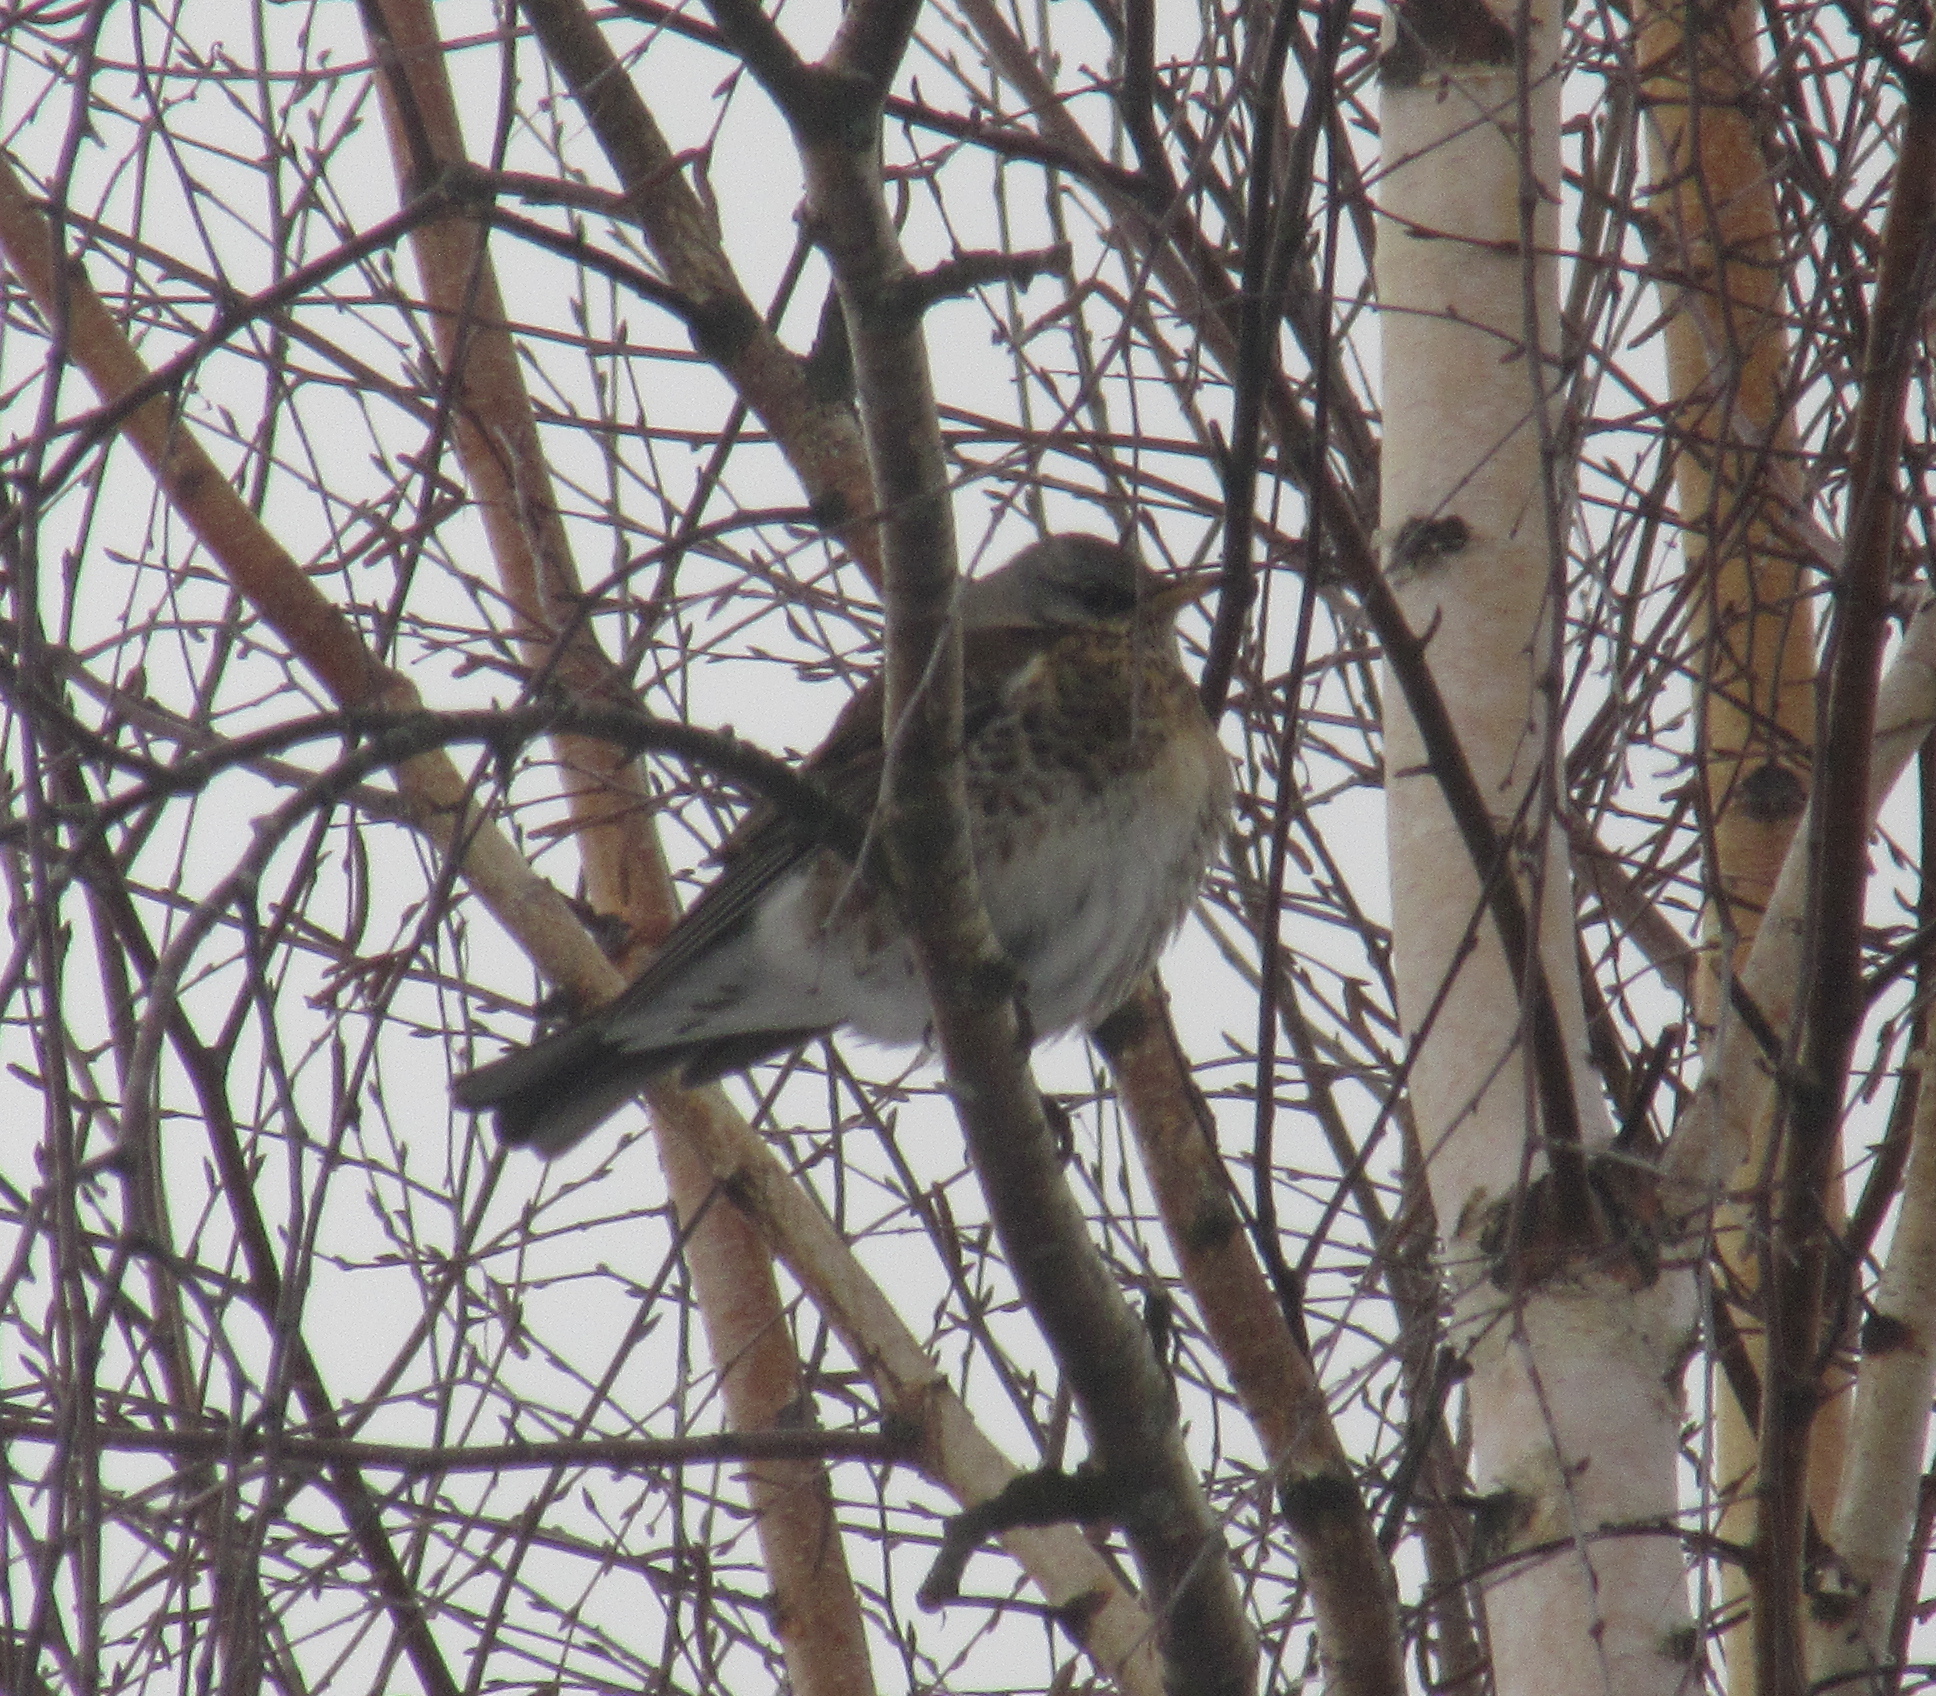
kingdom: Animalia
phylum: Chordata
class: Aves
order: Passeriformes
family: Turdidae
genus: Turdus
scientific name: Turdus pilaris
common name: Fieldfare
